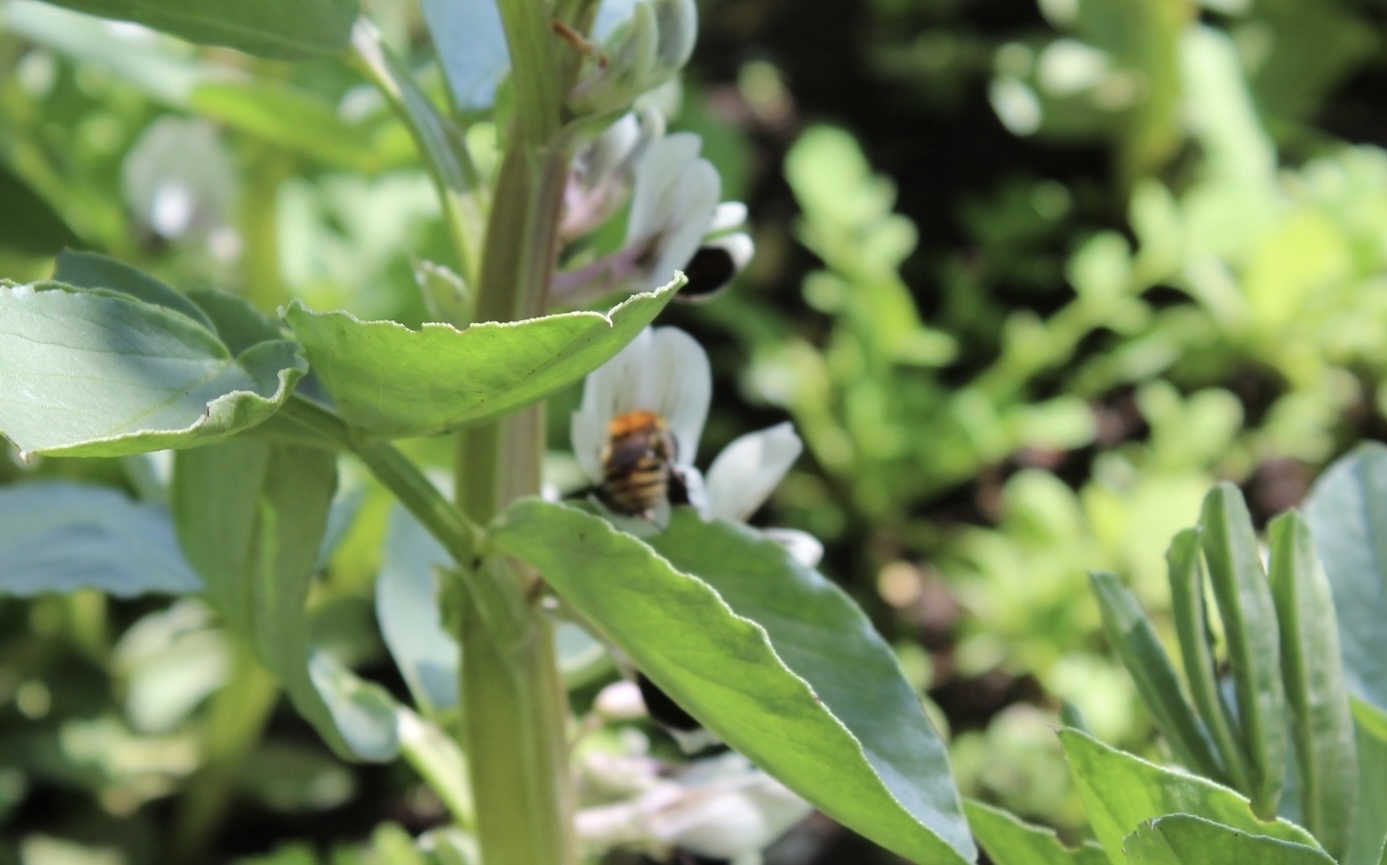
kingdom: Animalia
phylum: Arthropoda
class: Insecta
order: Hymenoptera
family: Apidae
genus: Bombus
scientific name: Bombus pascuorum
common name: Common carder bee
